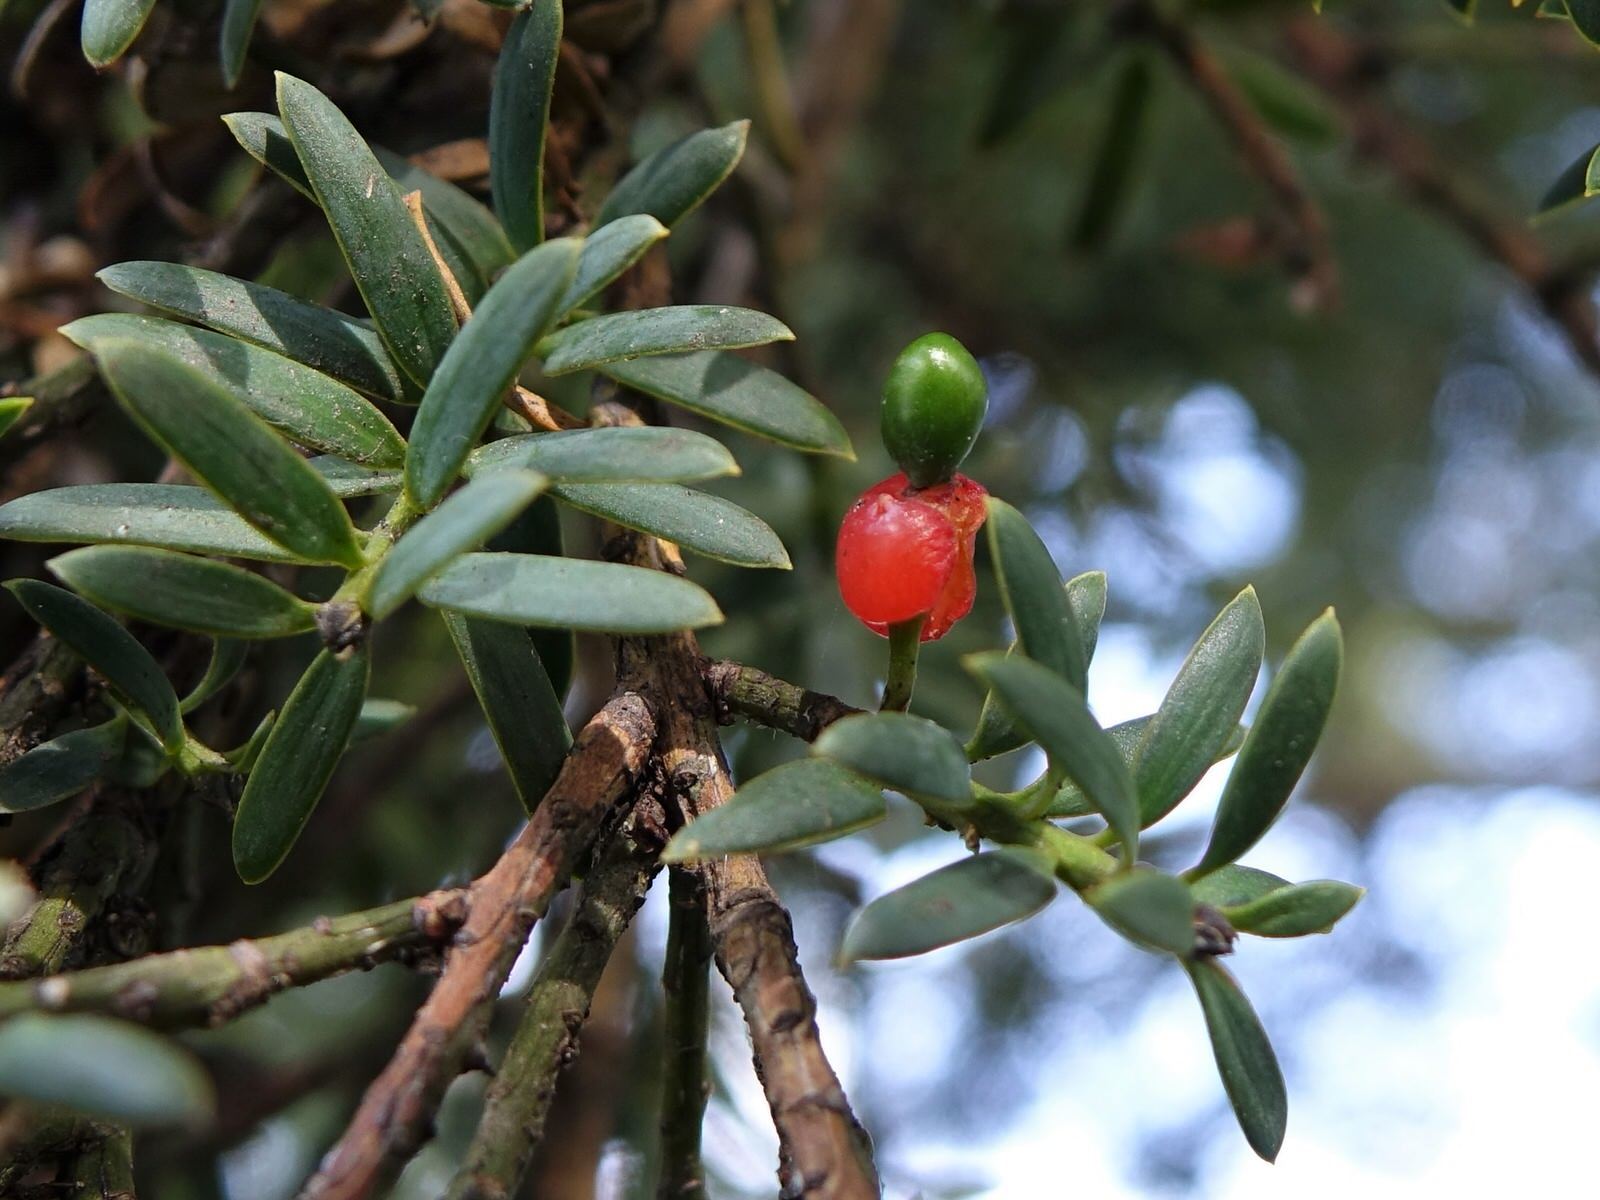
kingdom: Plantae
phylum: Tracheophyta
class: Pinopsida
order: Pinales
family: Podocarpaceae
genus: Podocarpus
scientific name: Podocarpus totara
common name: Totara
